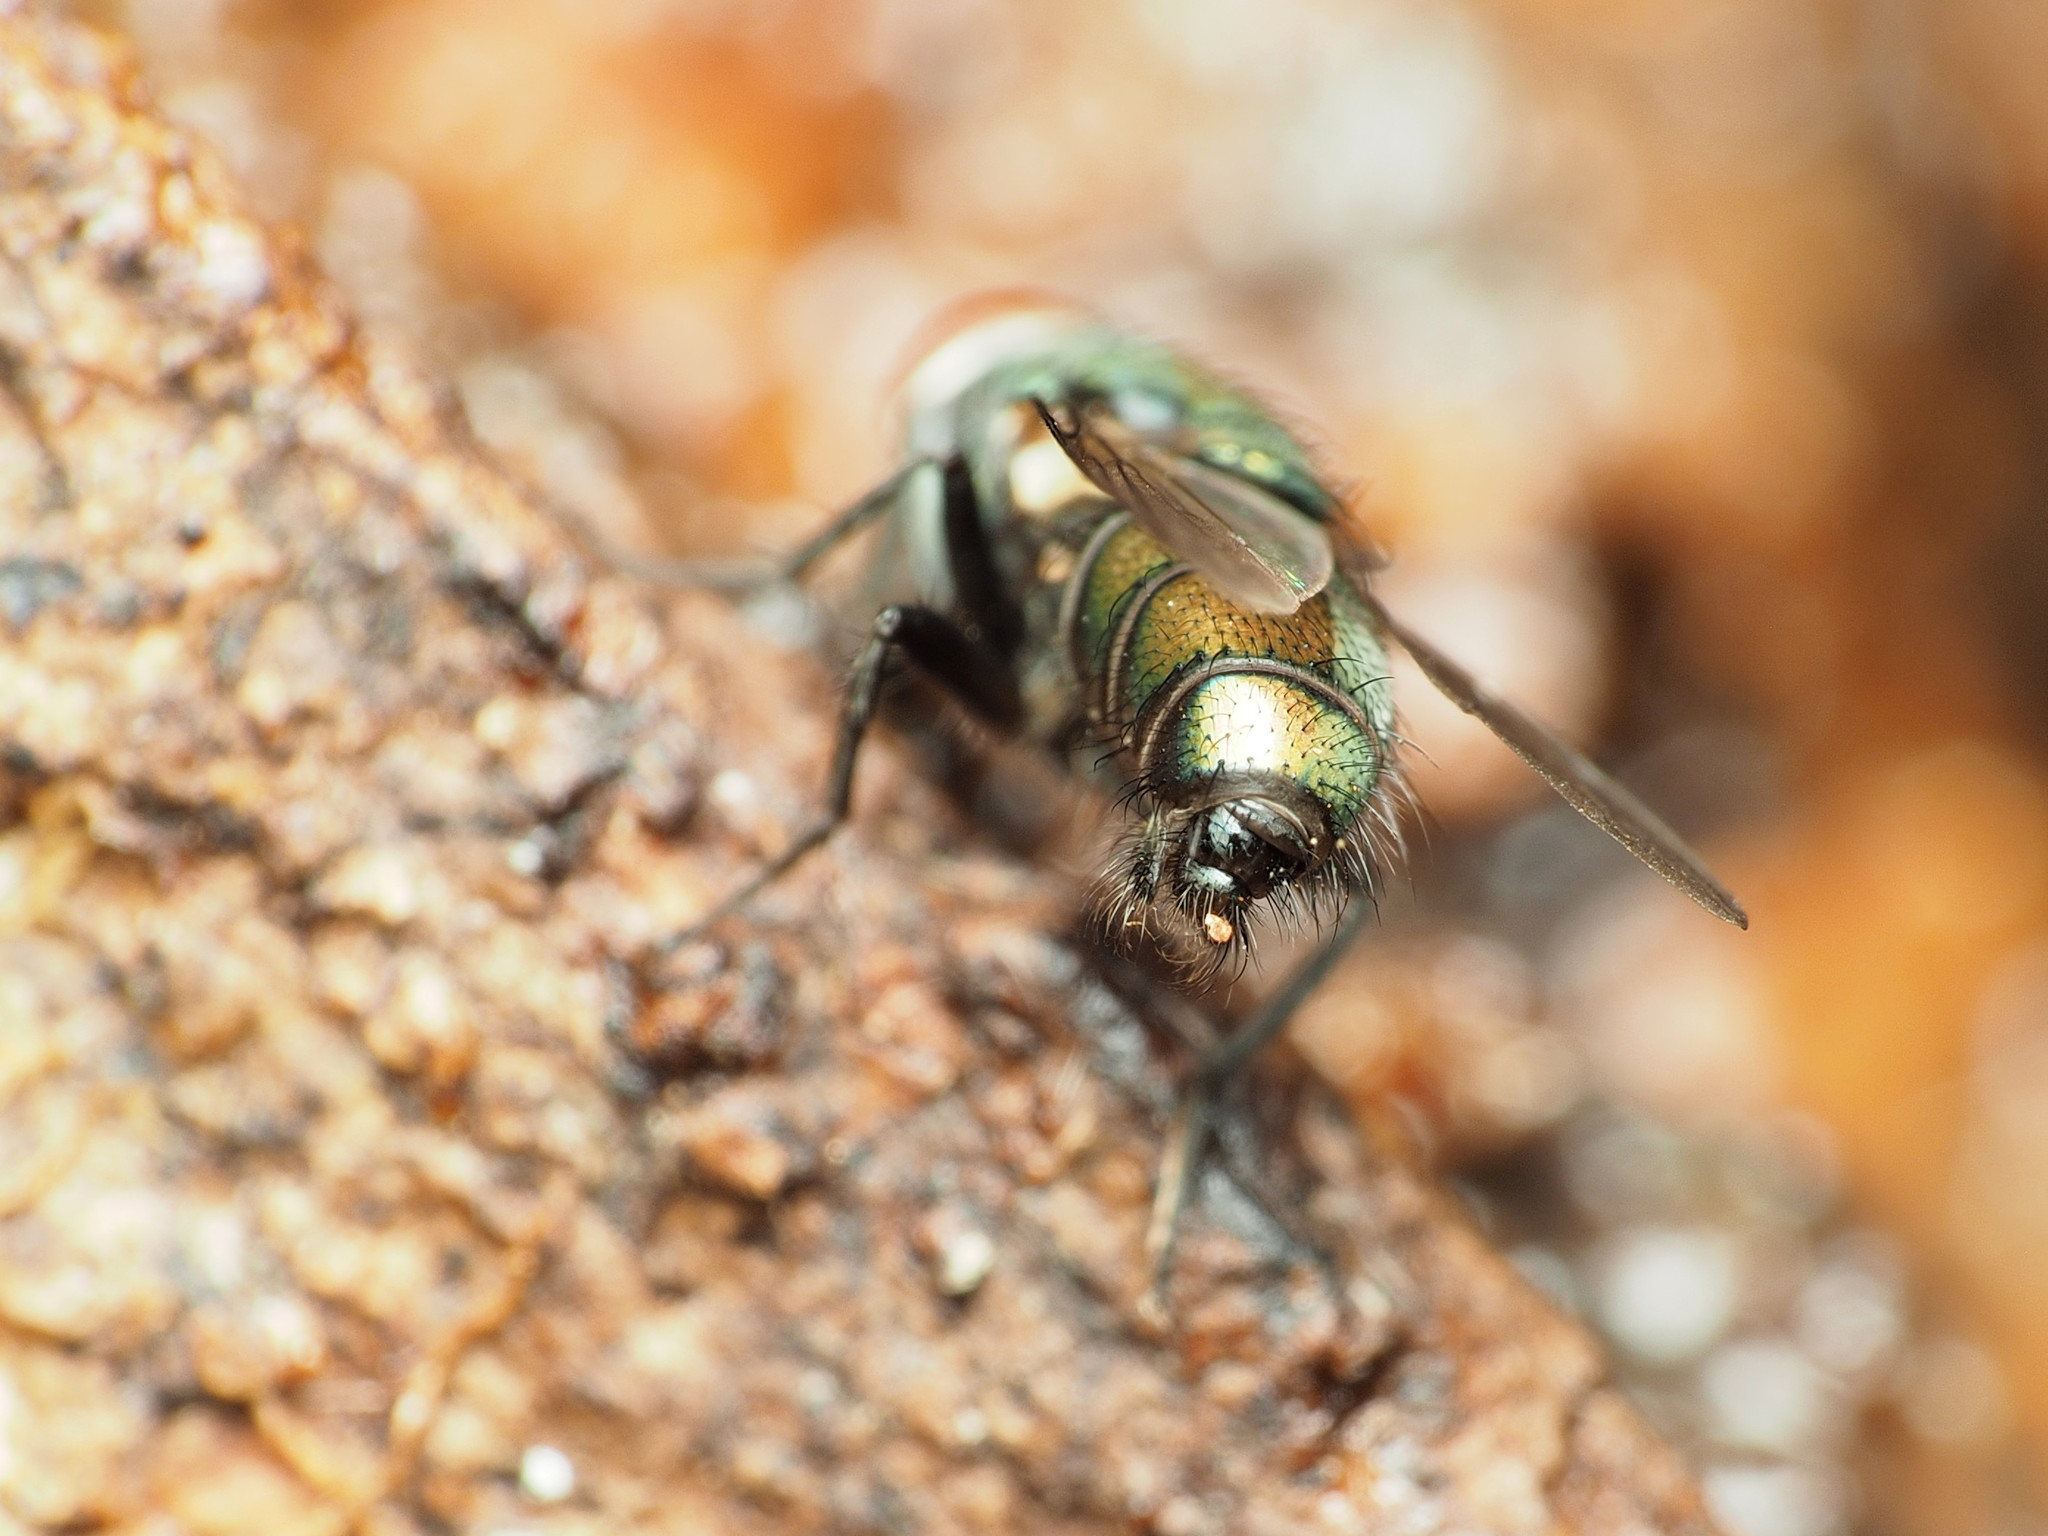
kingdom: Animalia
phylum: Arthropoda
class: Insecta
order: Diptera
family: Calliphoridae
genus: Lucilia
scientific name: Lucilia cuprina
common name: Sheep blow fly
